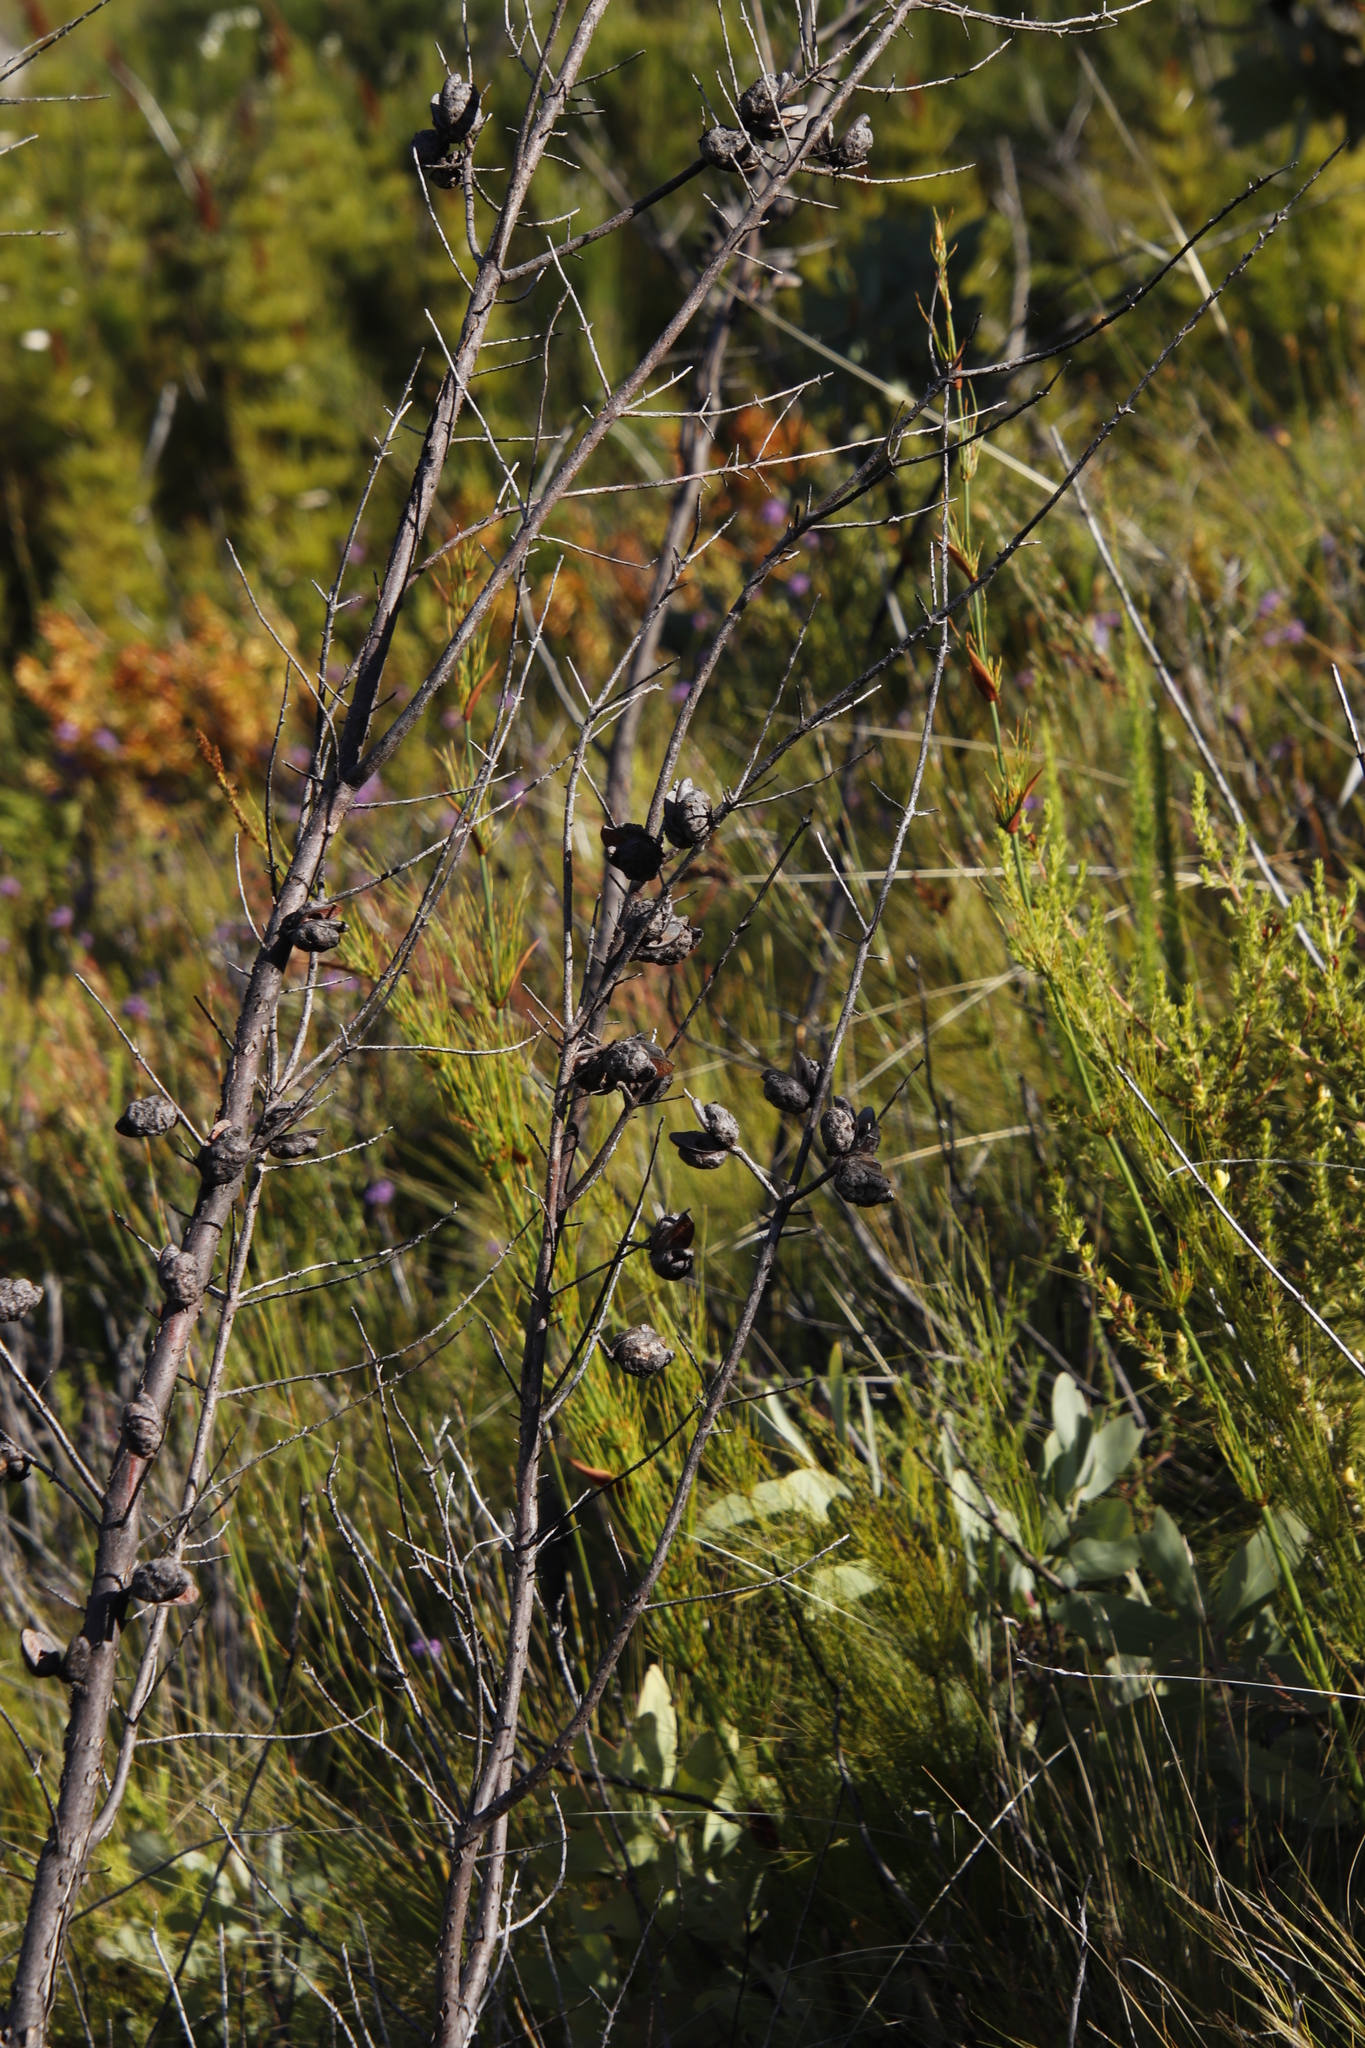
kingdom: Plantae
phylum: Tracheophyta
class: Magnoliopsida
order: Proteales
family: Proteaceae
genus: Hakea
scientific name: Hakea sericea
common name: Needle bush
